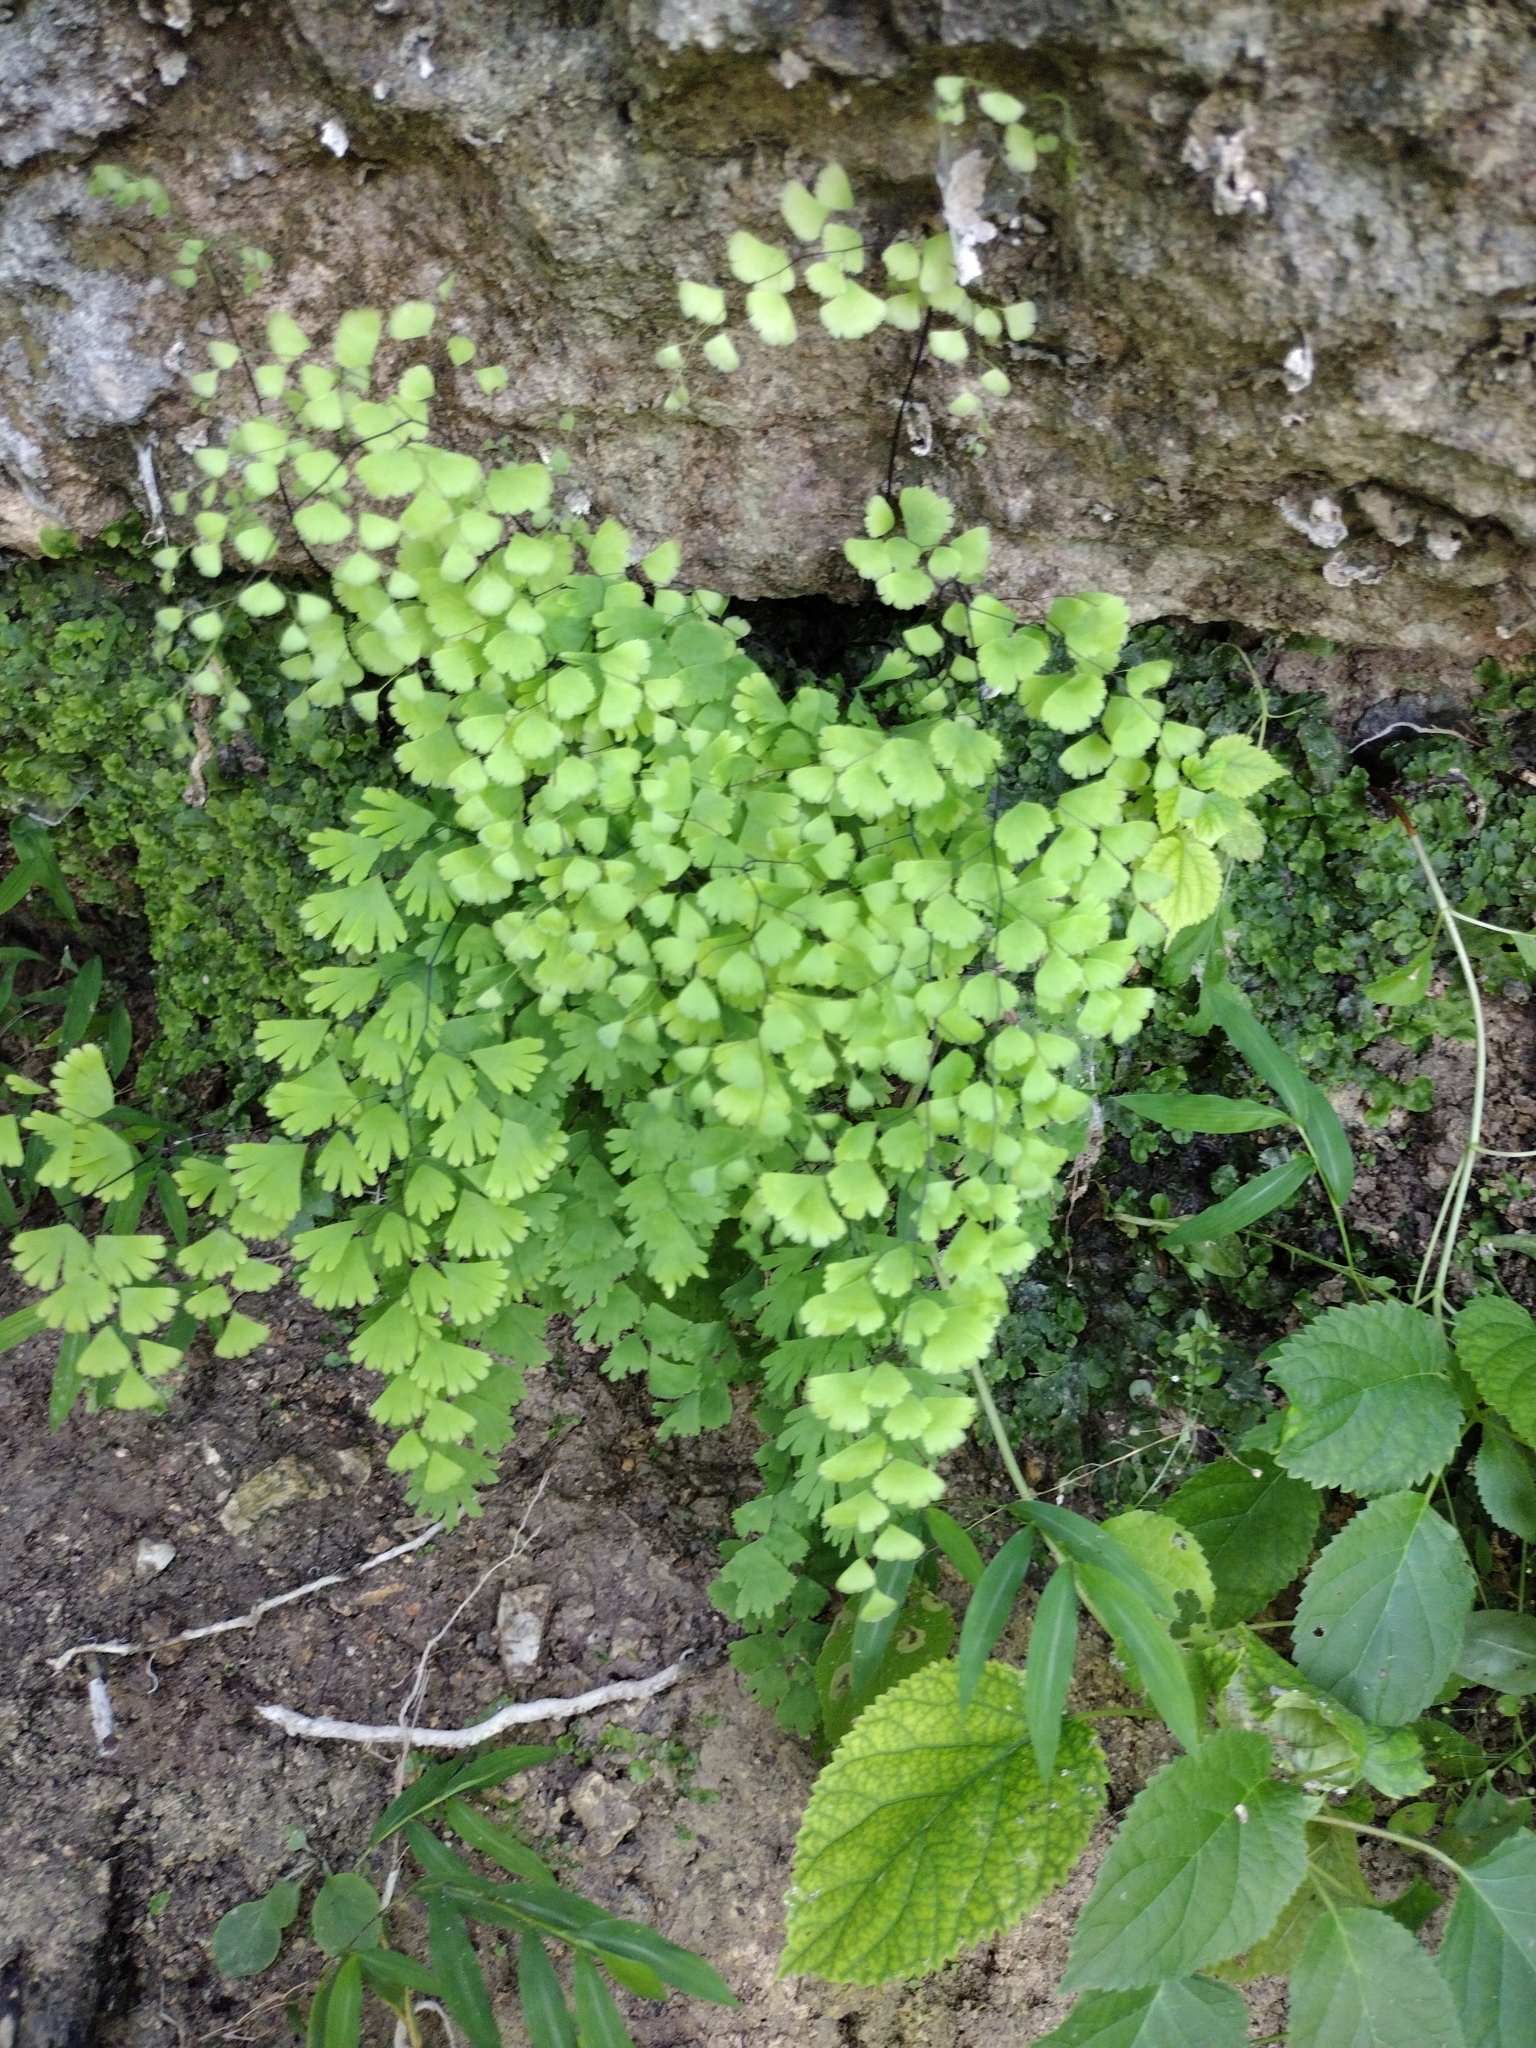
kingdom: Plantae
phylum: Tracheophyta
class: Polypodiopsida
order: Polypodiales
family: Pteridaceae
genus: Adiantum
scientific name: Adiantum capillus-veneris
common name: Maidenhair fern
